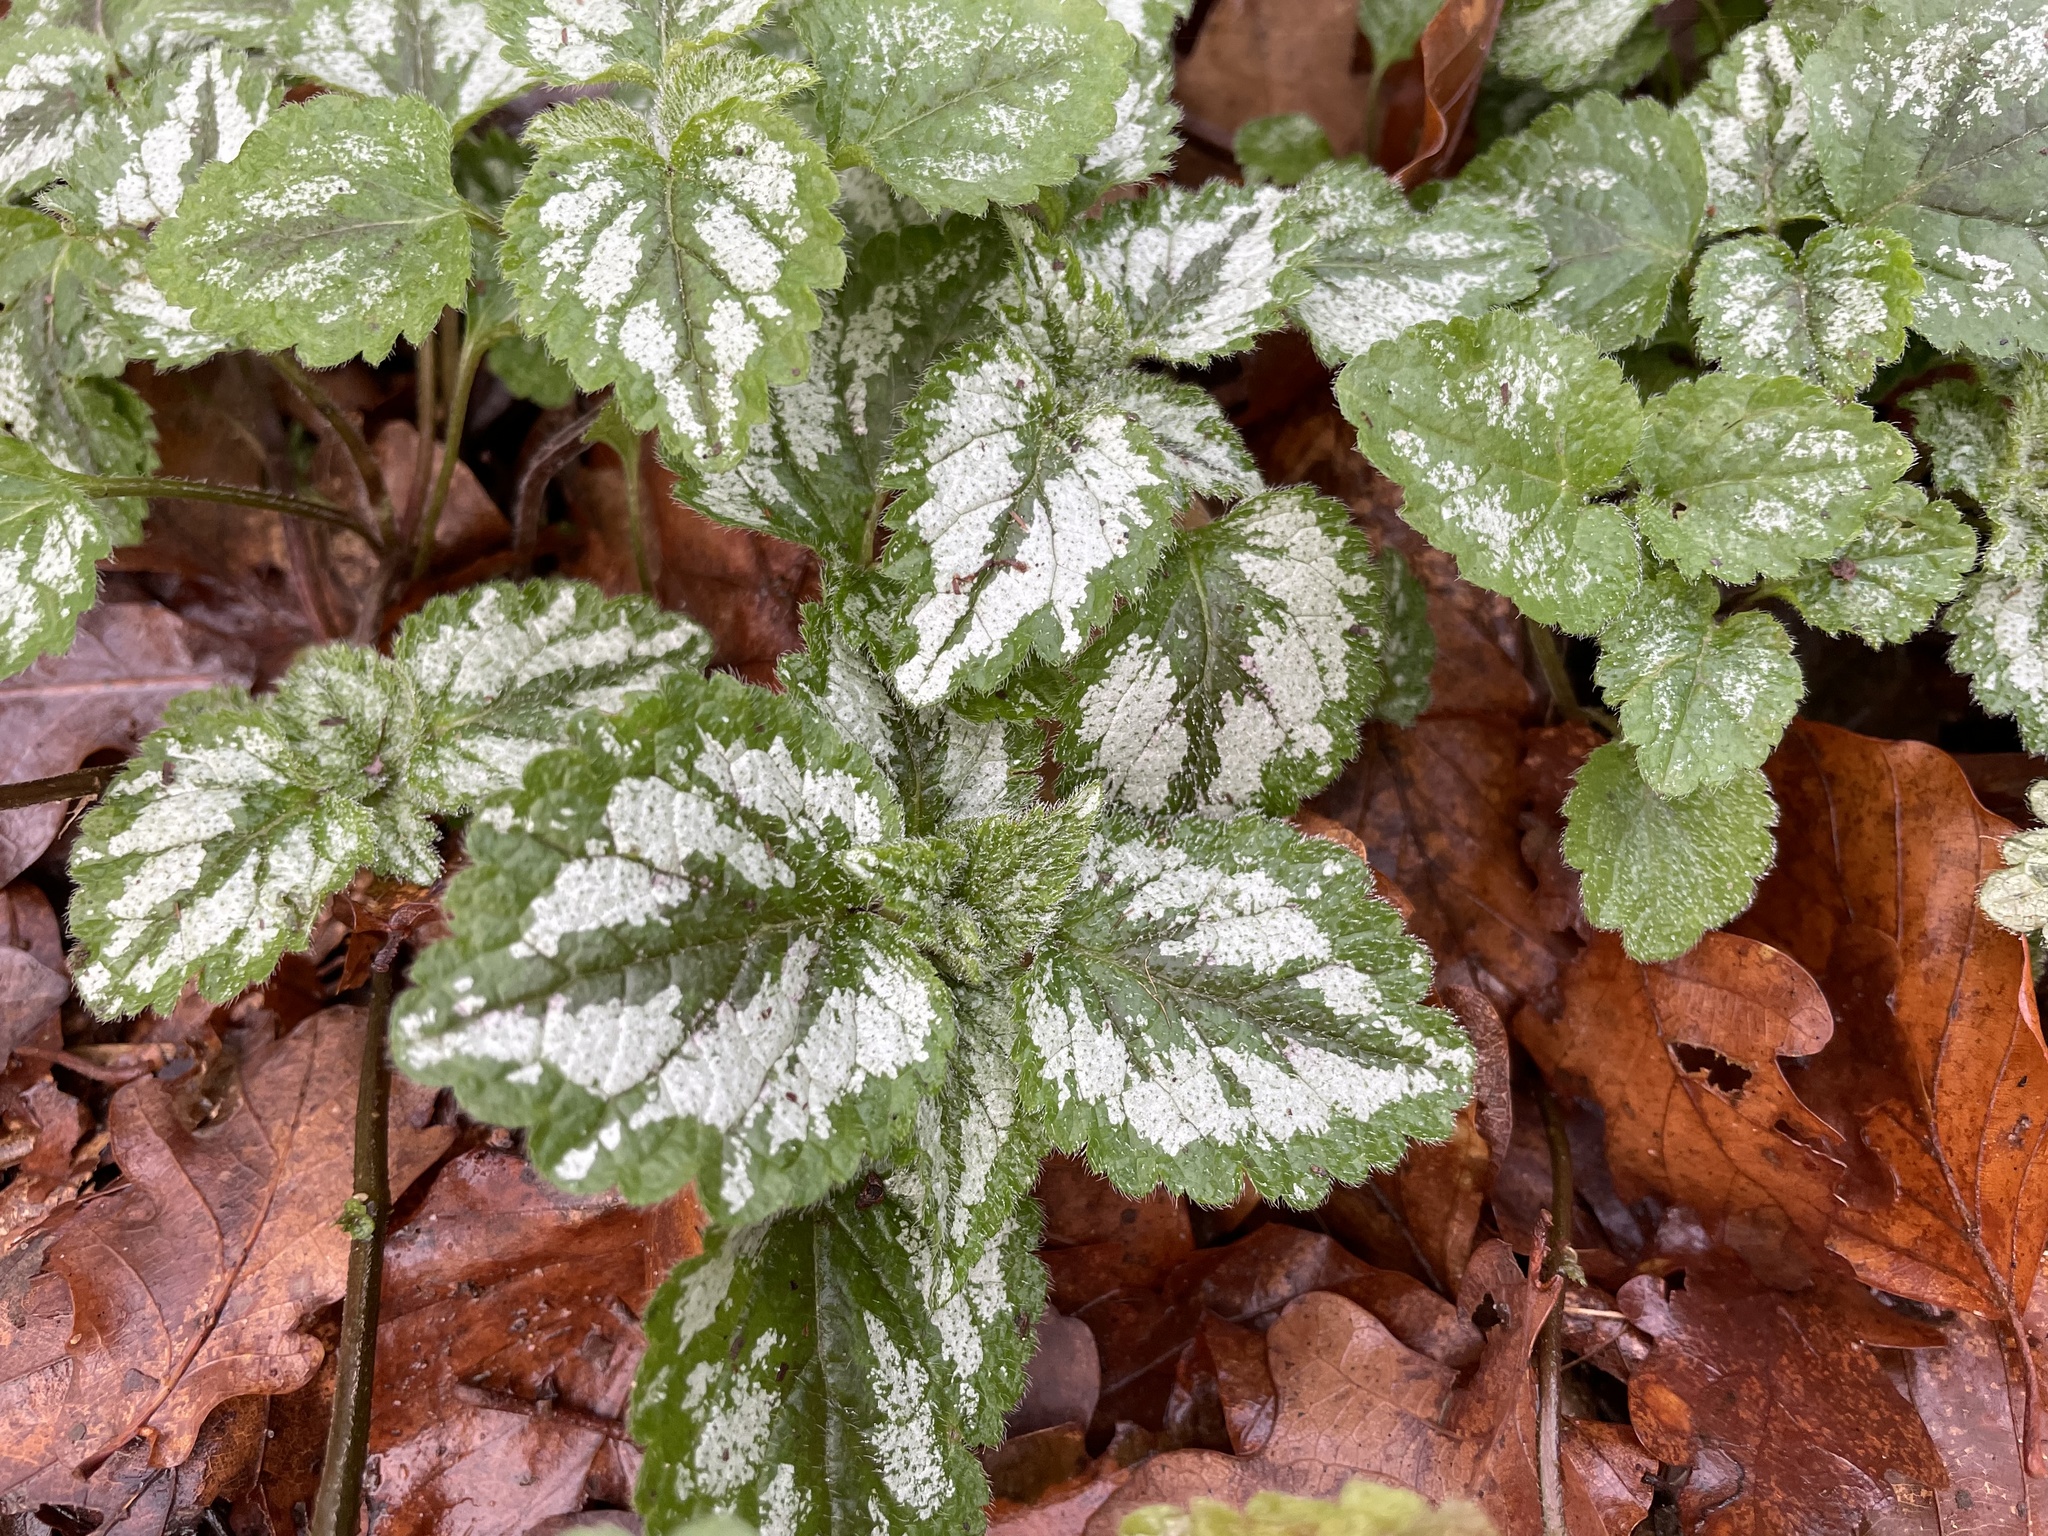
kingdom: Plantae
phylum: Tracheophyta
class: Magnoliopsida
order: Lamiales
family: Lamiaceae
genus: Lamium
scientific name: Lamium galeobdolon
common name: Yellow archangel
